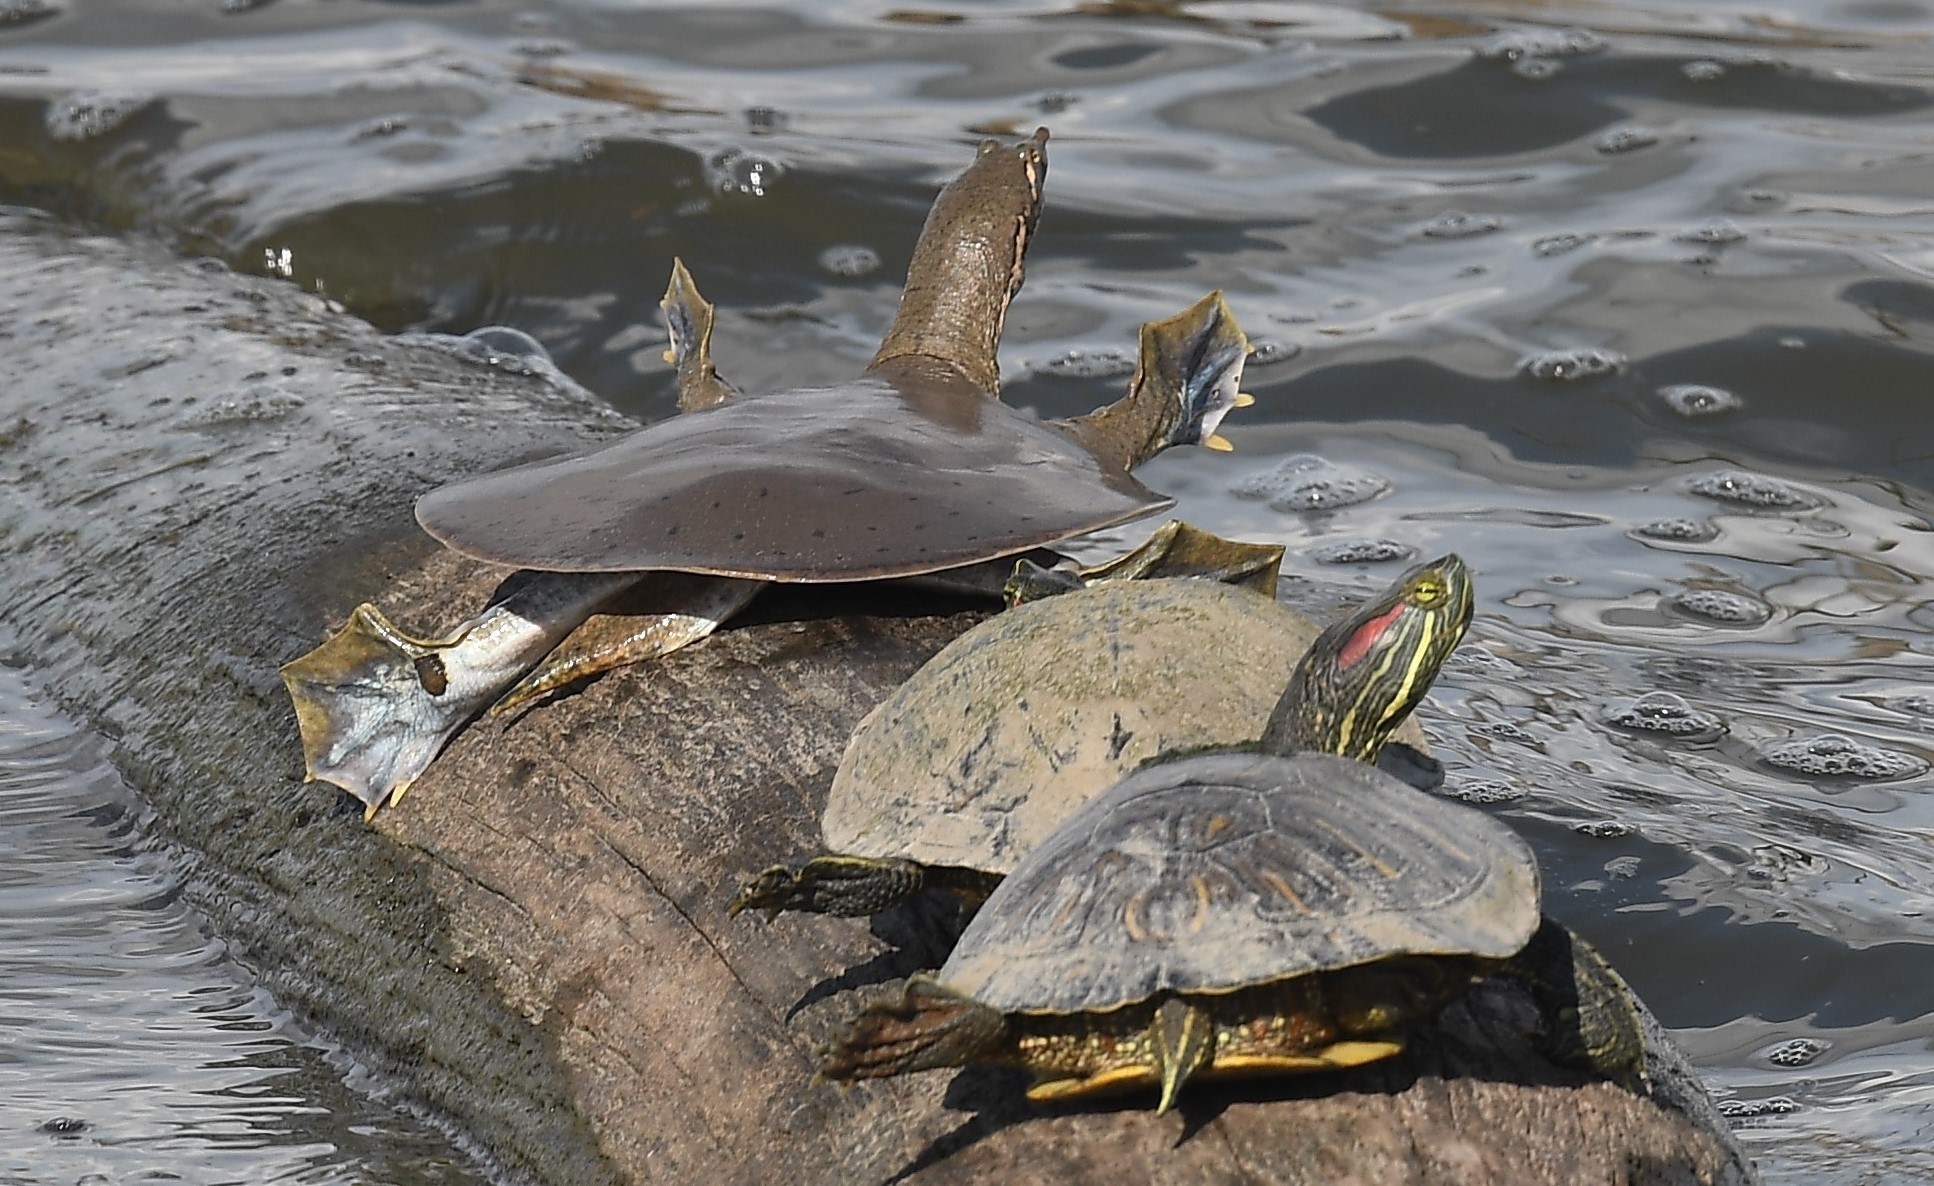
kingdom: Animalia
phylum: Chordata
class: Testudines
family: Trionychidae
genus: Apalone
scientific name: Apalone mutica
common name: Smooth softshell turtle
